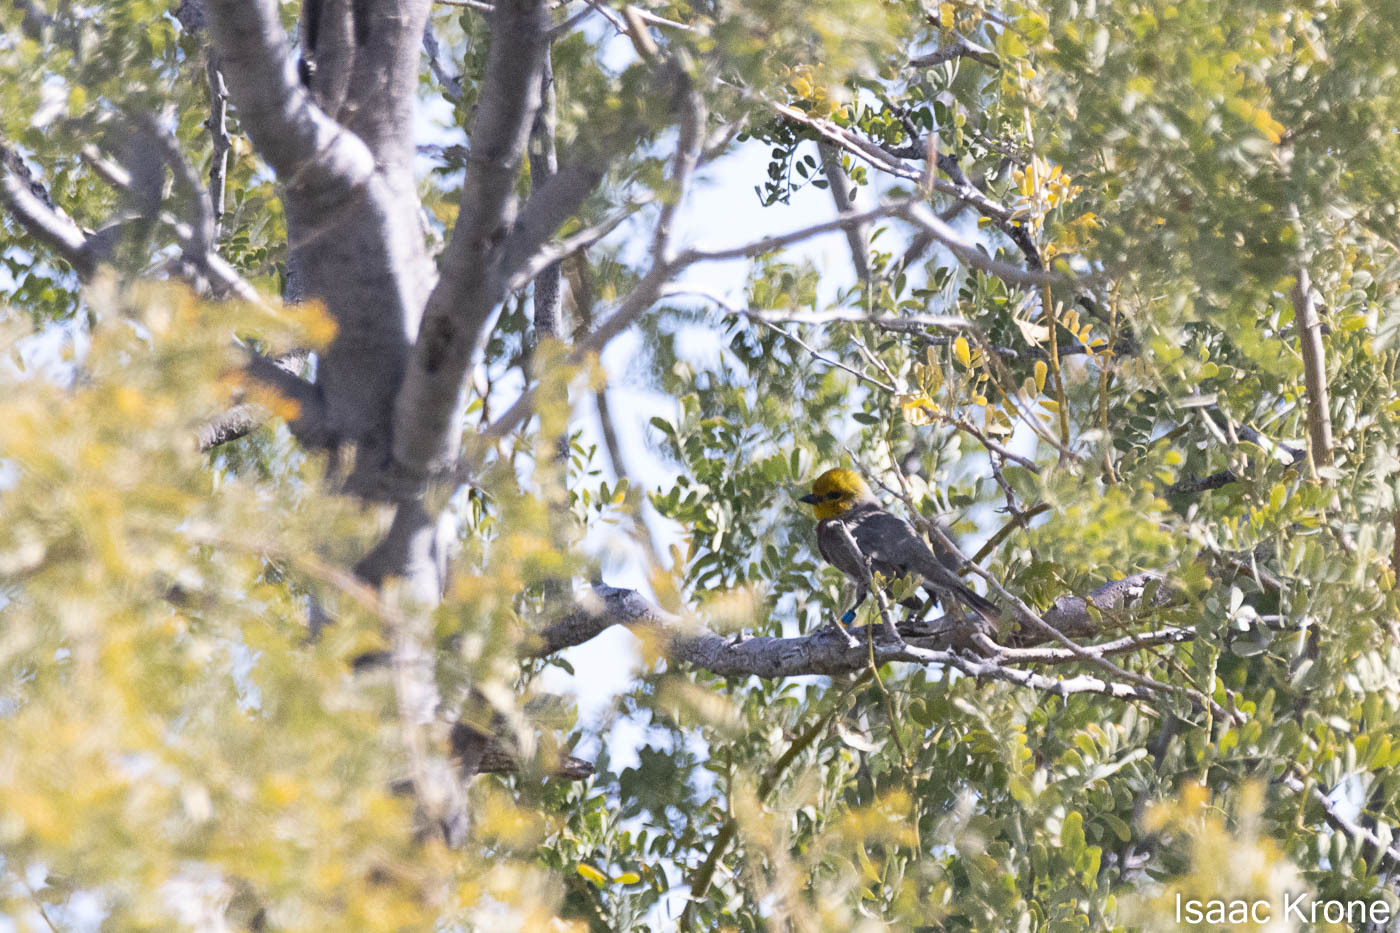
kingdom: Animalia
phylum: Chordata
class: Aves
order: Passeriformes
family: Remizidae
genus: Auriparus
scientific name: Auriparus flaviceps
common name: Verdin
